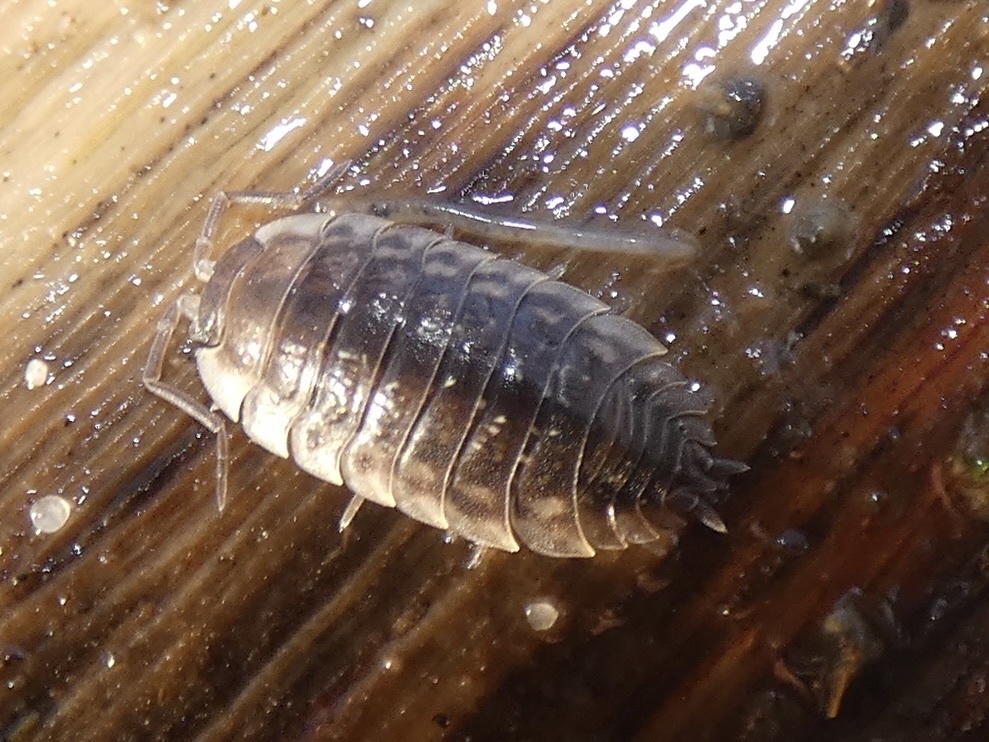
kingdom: Animalia
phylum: Arthropoda
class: Malacostraca
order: Isopoda
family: Oniscidae
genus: Oniscus
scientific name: Oniscus asellus
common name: Common shiny woodlouse
